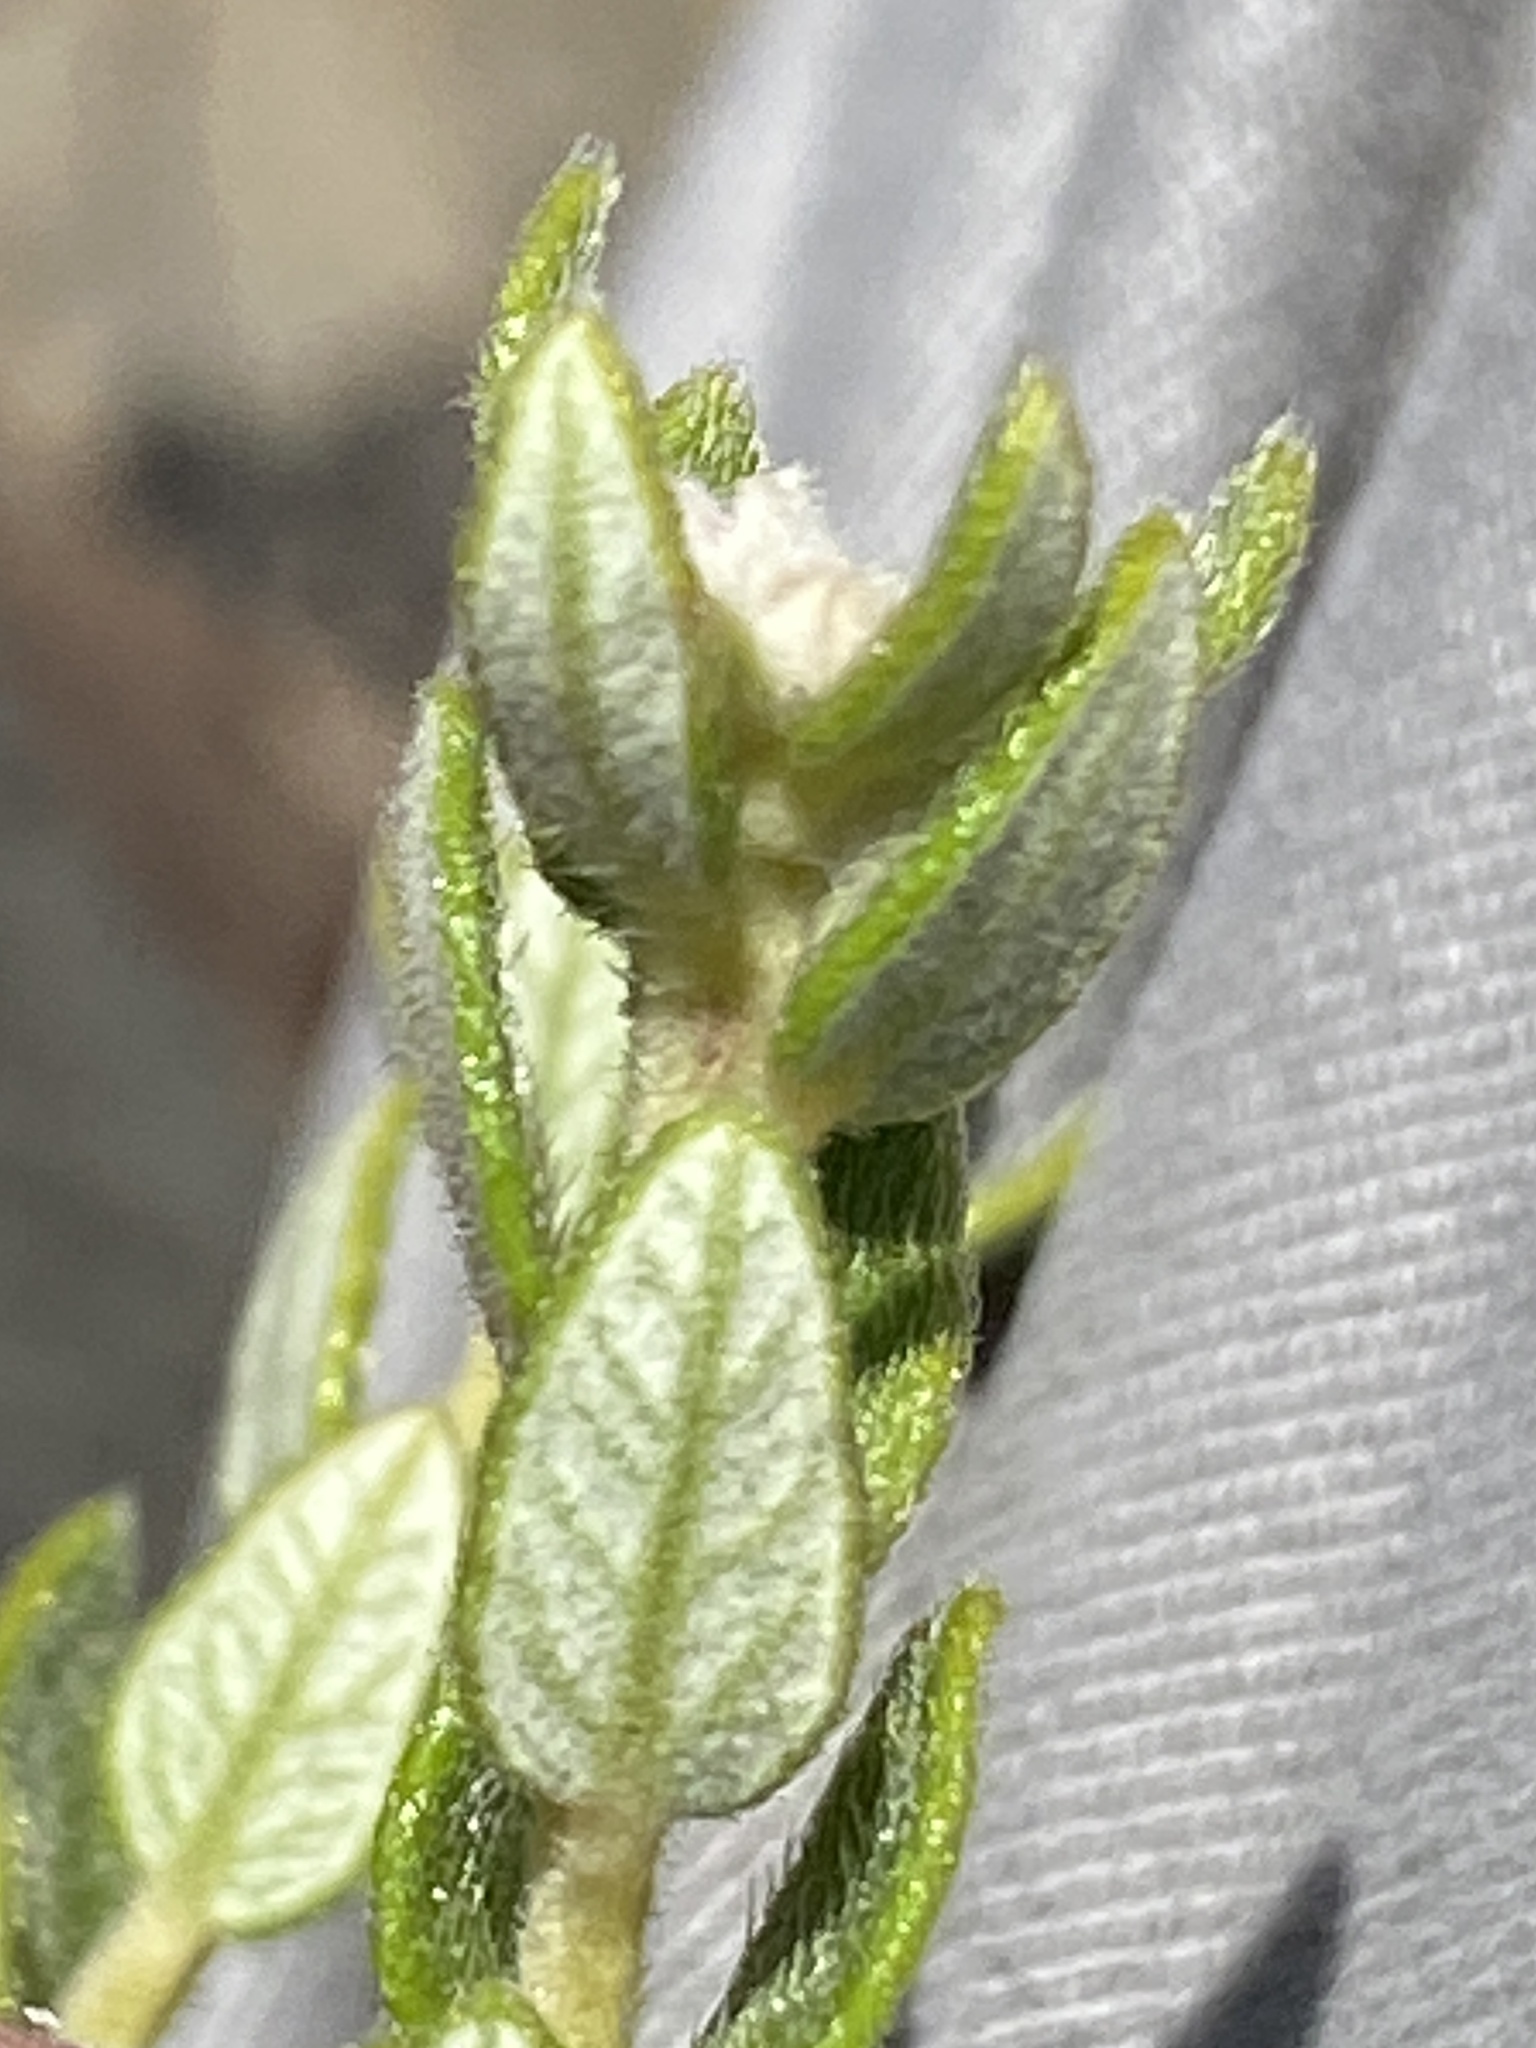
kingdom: Plantae
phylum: Tracheophyta
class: Magnoliopsida
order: Rosales
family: Rhamnaceae
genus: Phylica
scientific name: Phylica fruticosa
